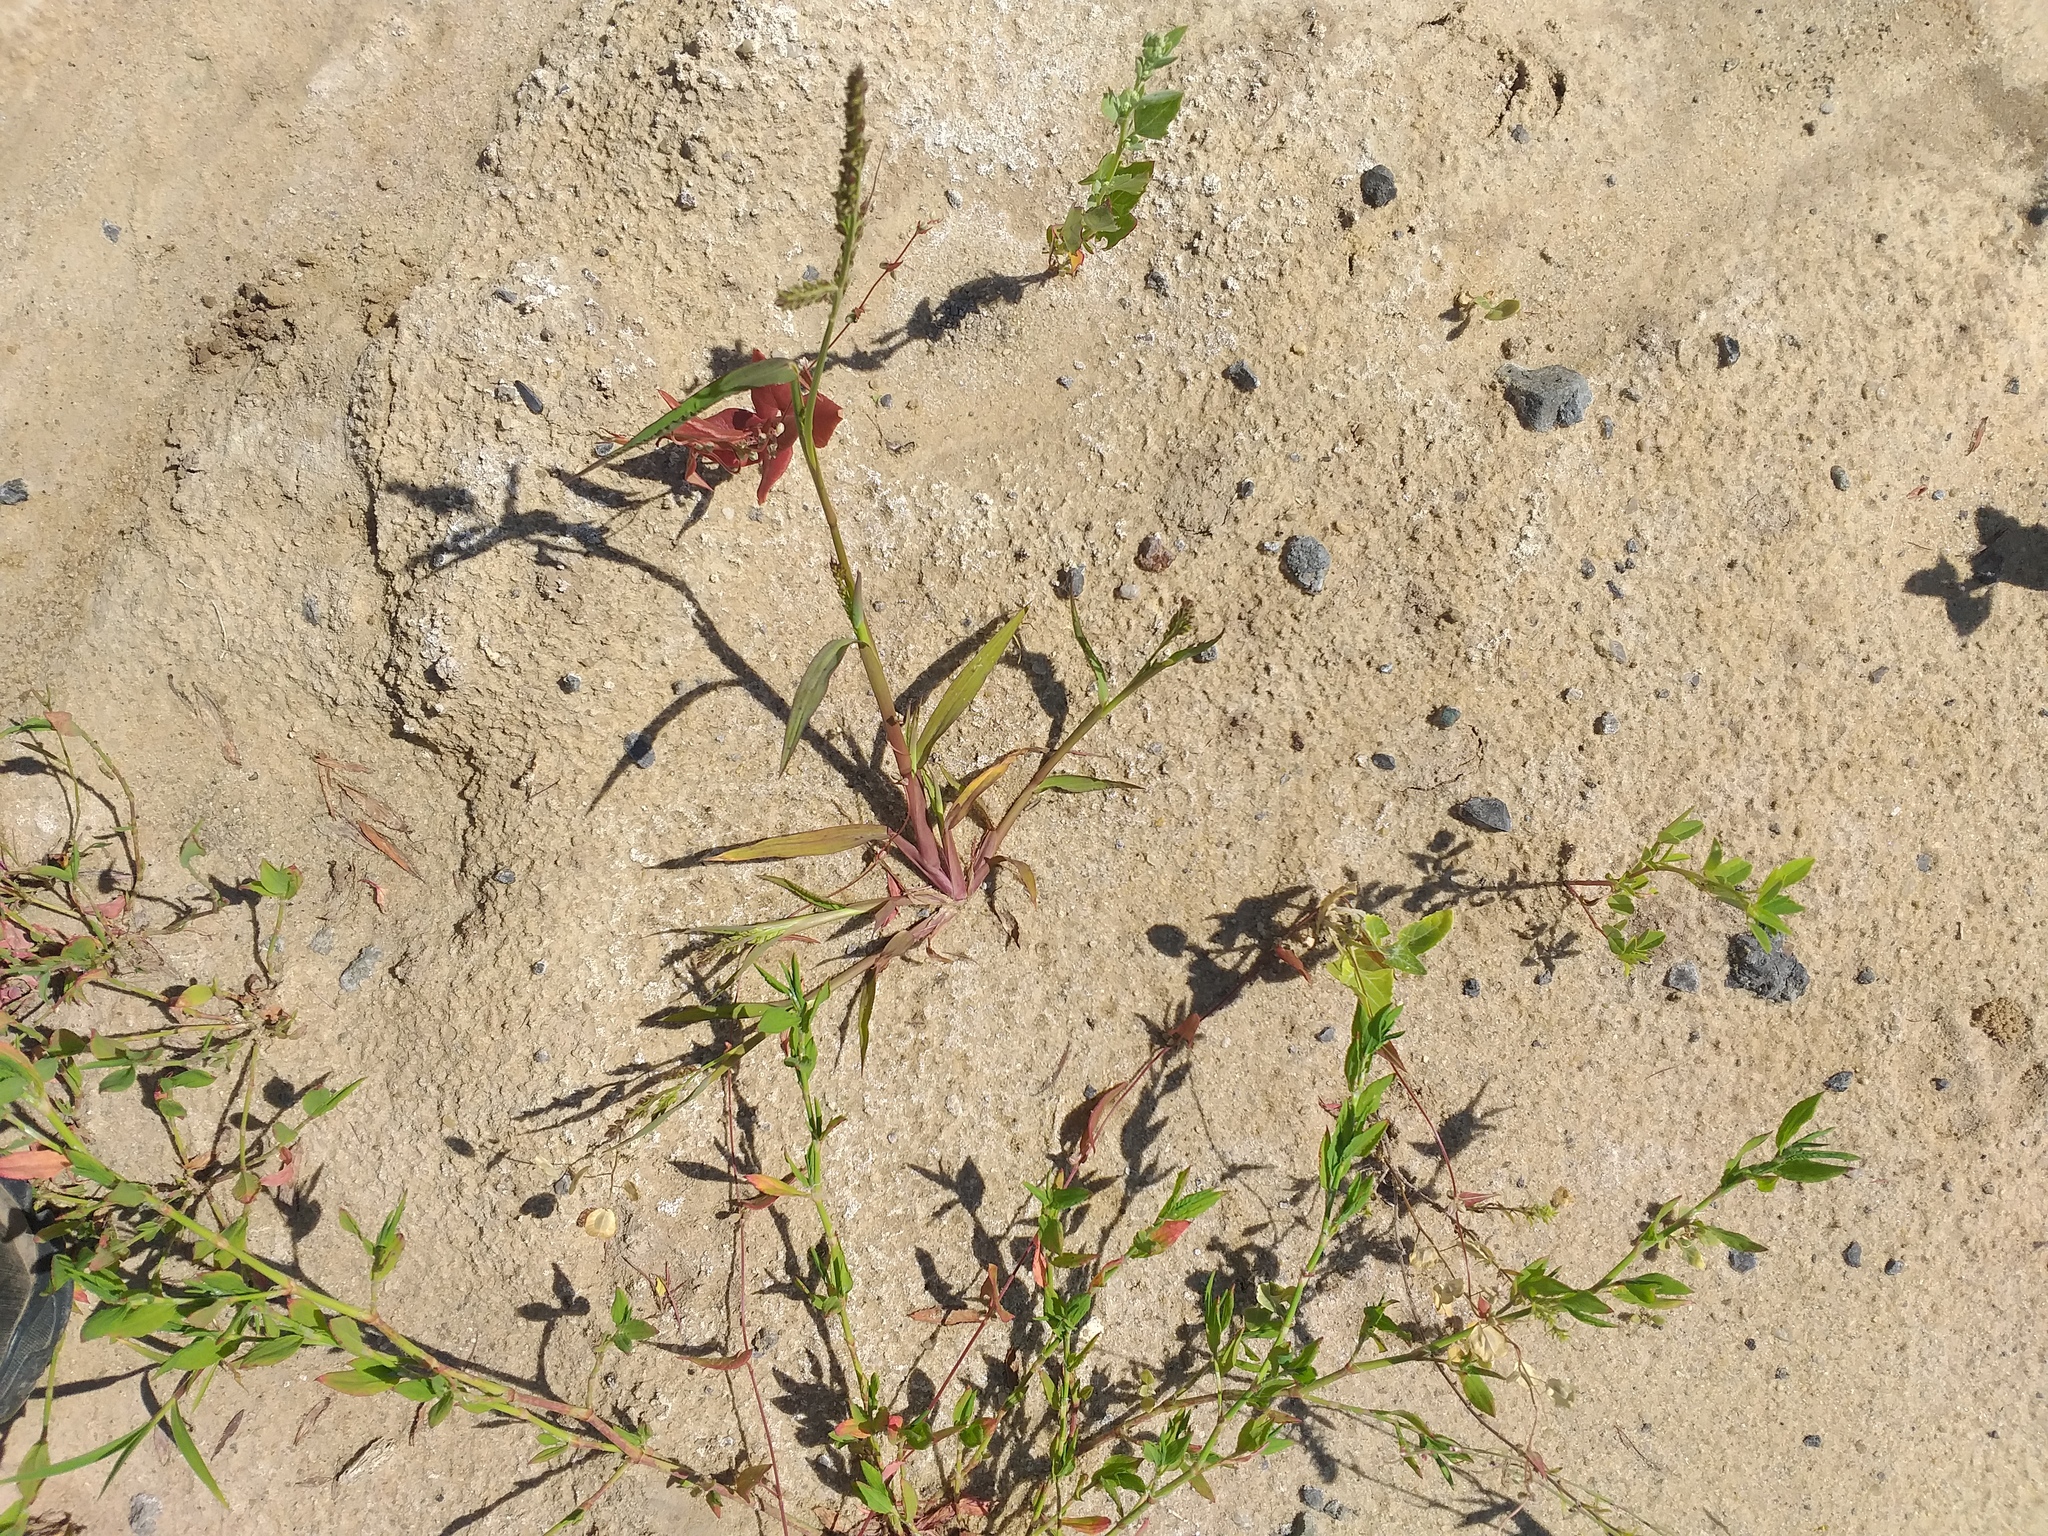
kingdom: Plantae
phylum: Tracheophyta
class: Liliopsida
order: Poales
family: Poaceae
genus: Echinochloa
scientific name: Echinochloa crus-galli
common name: Cockspur
